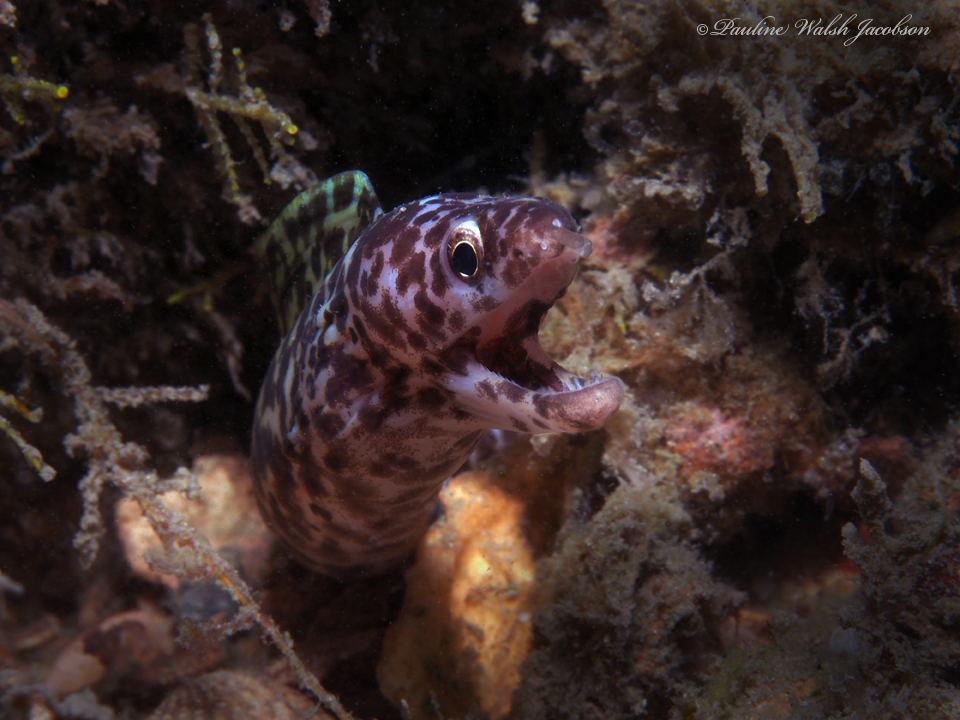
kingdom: Animalia
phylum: Chordata
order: Anguilliformes
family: Muraenidae
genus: Gymnothorax
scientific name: Gymnothorax moringa
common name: Spotted moray
